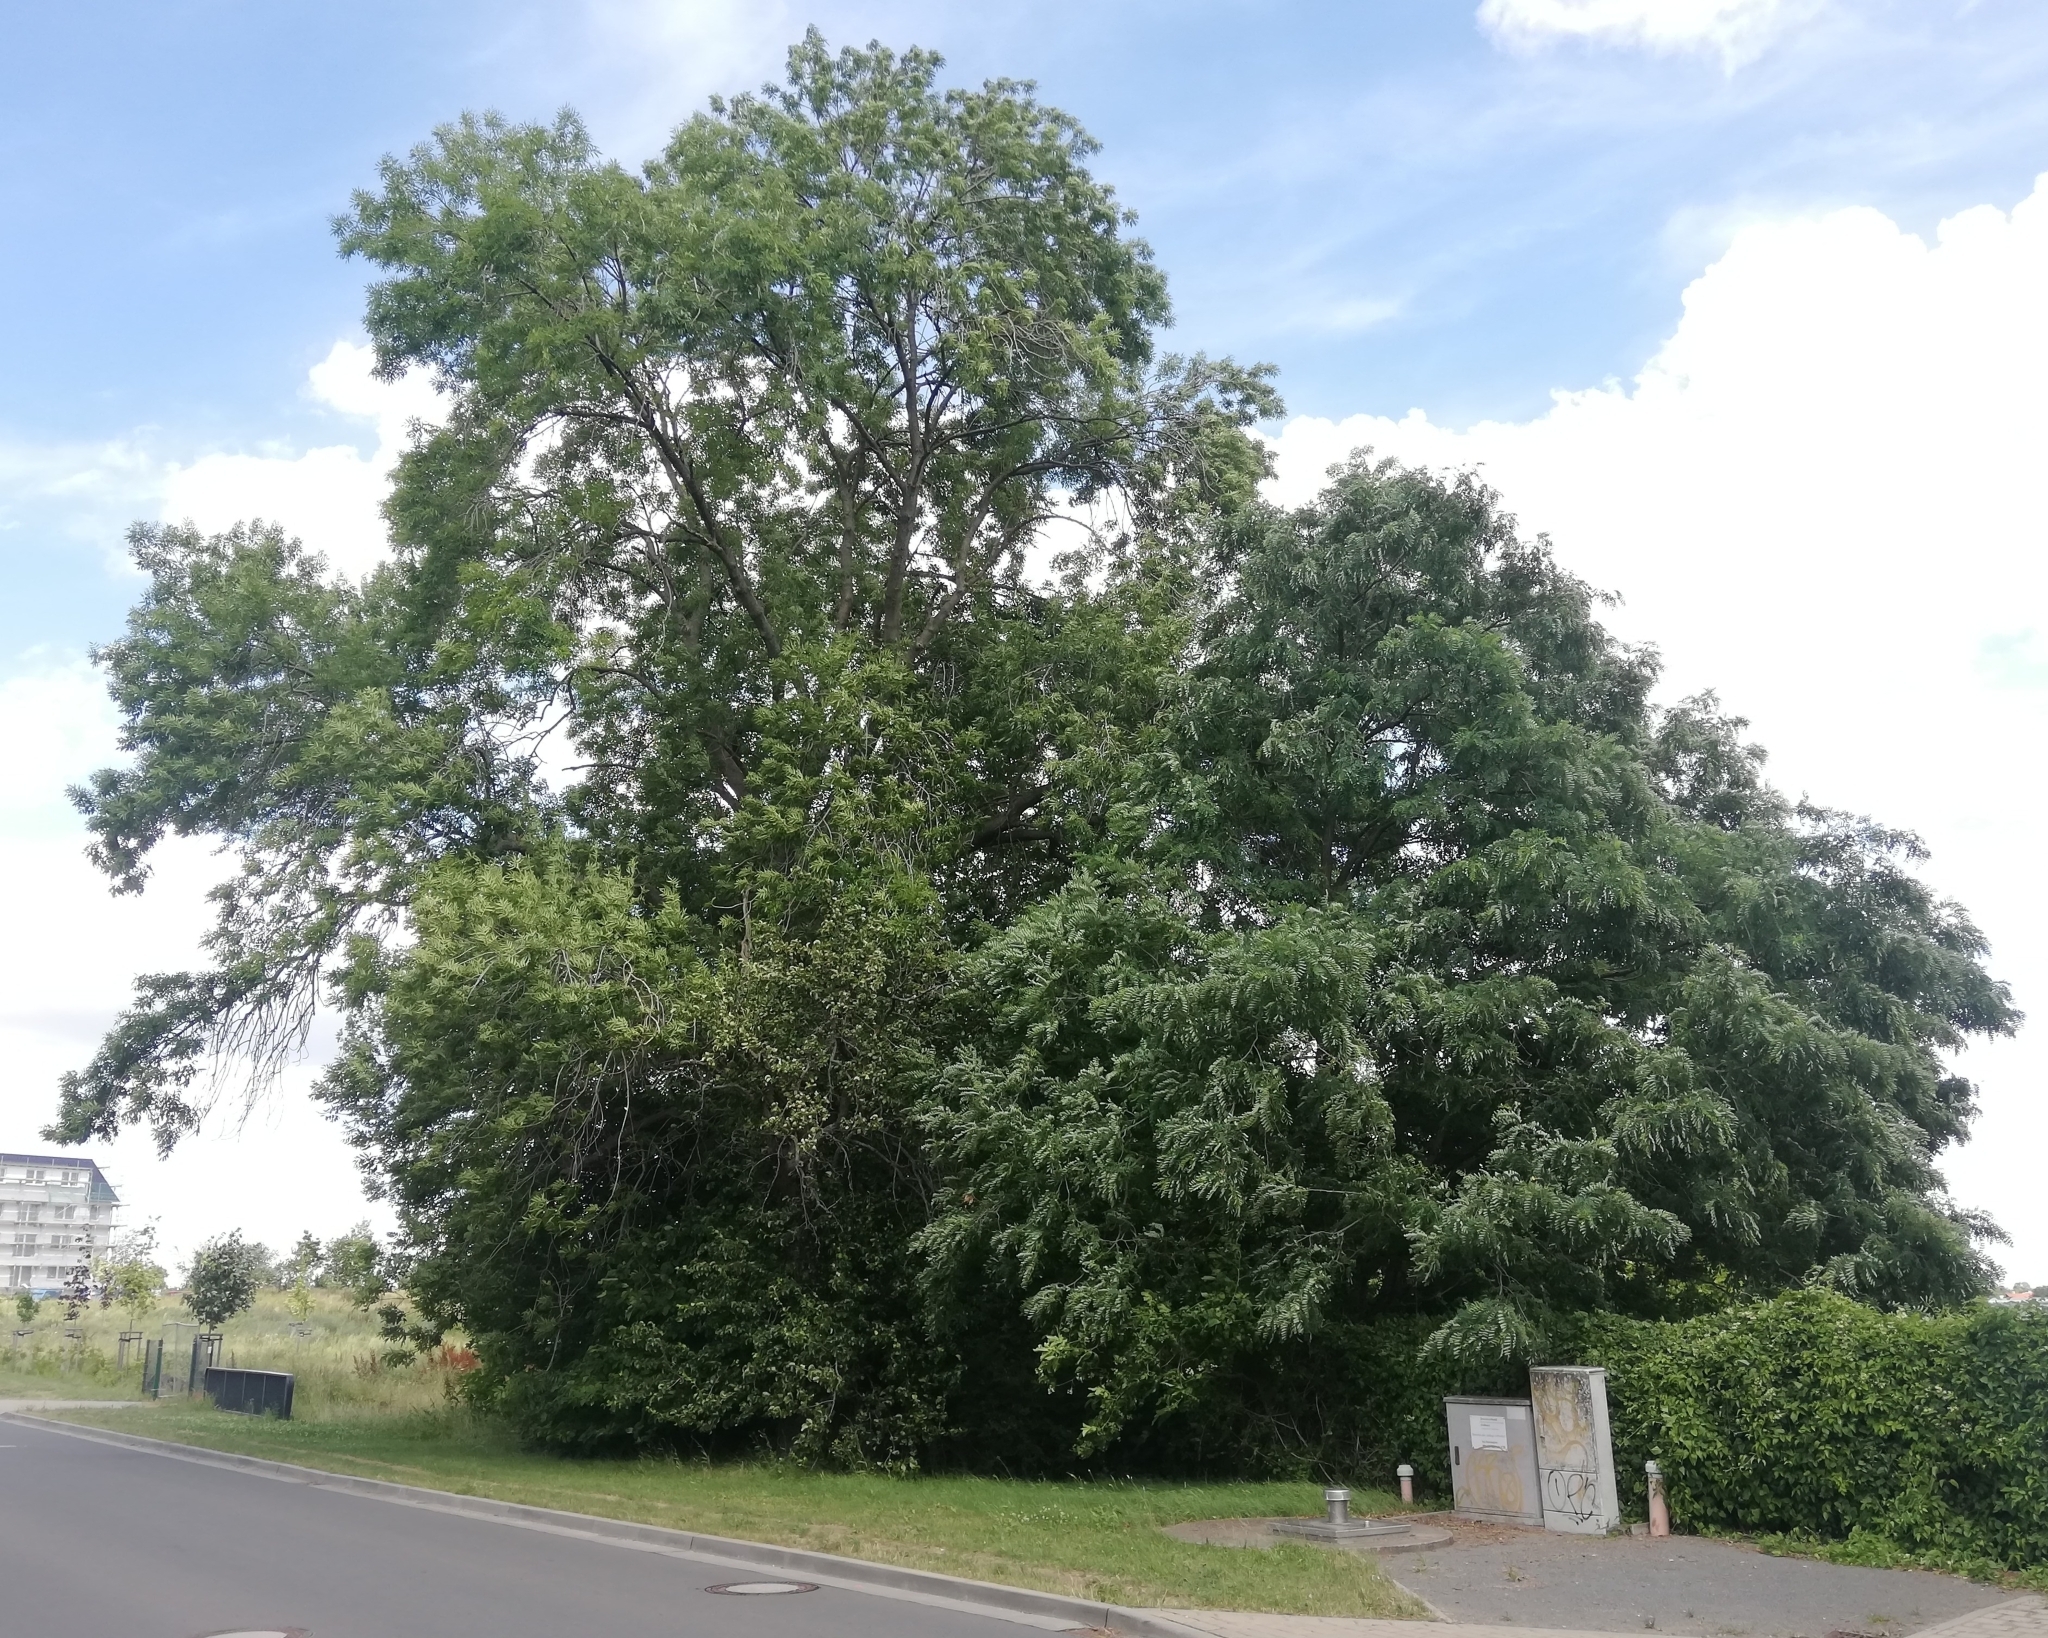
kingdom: Plantae
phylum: Tracheophyta
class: Magnoliopsida
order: Fabales
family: Fabaceae
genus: Robinia
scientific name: Robinia pseudoacacia
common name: Black locust
